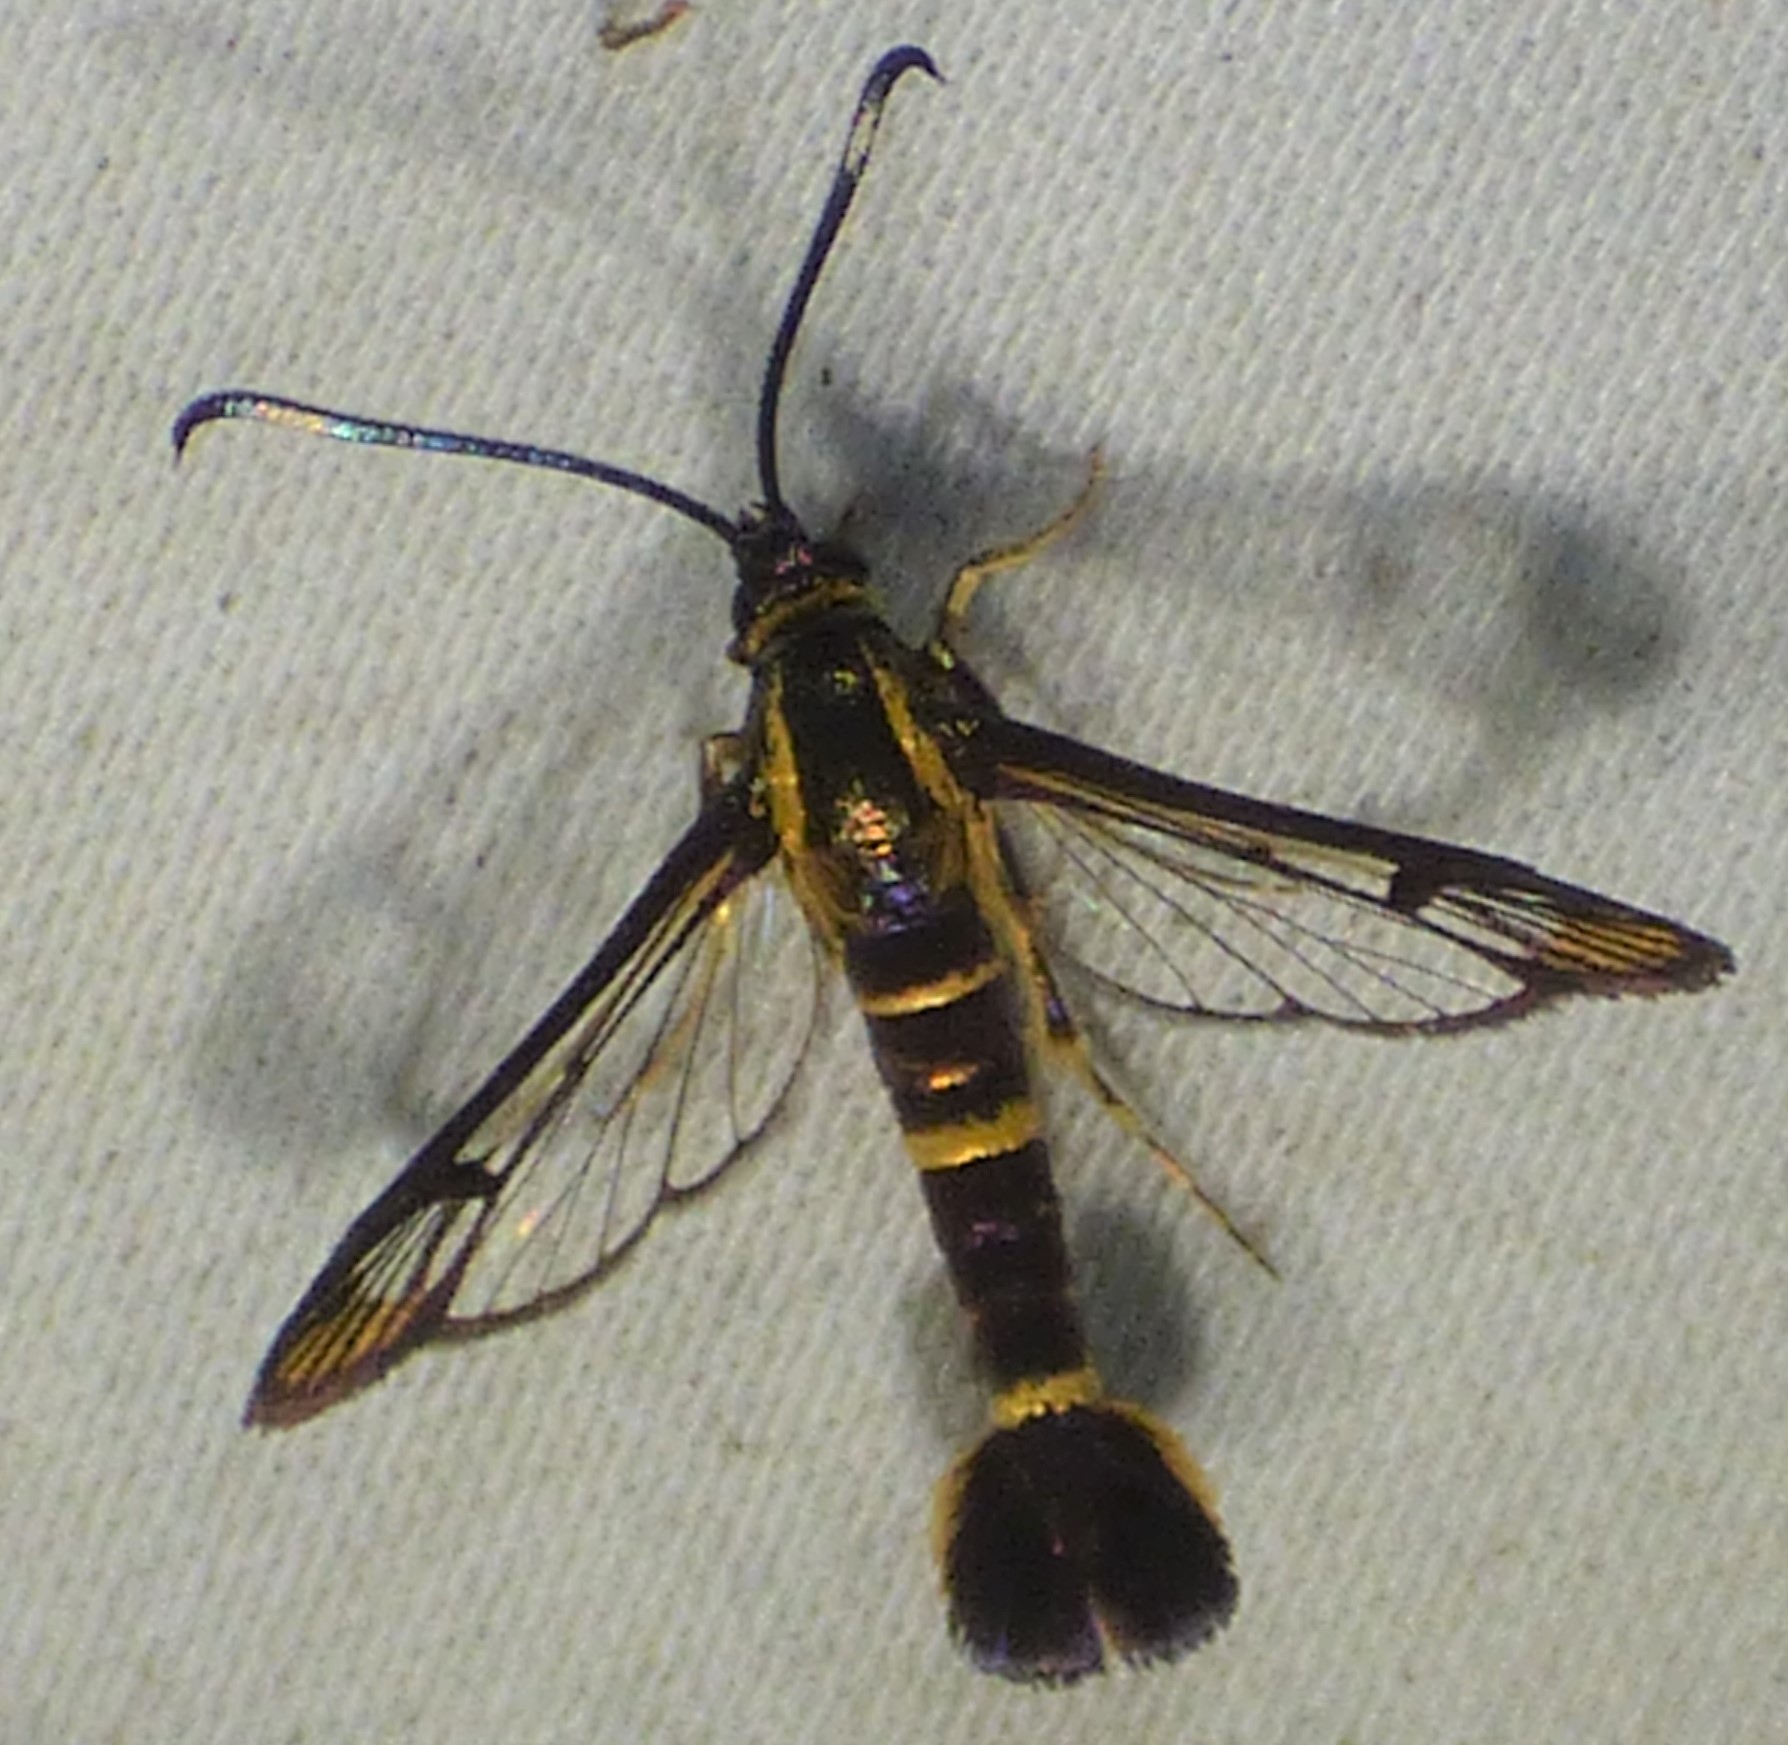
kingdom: Animalia
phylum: Arthropoda
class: Insecta
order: Lepidoptera
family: Sesiidae
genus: Carmenta
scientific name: Carmenta bassiformis
